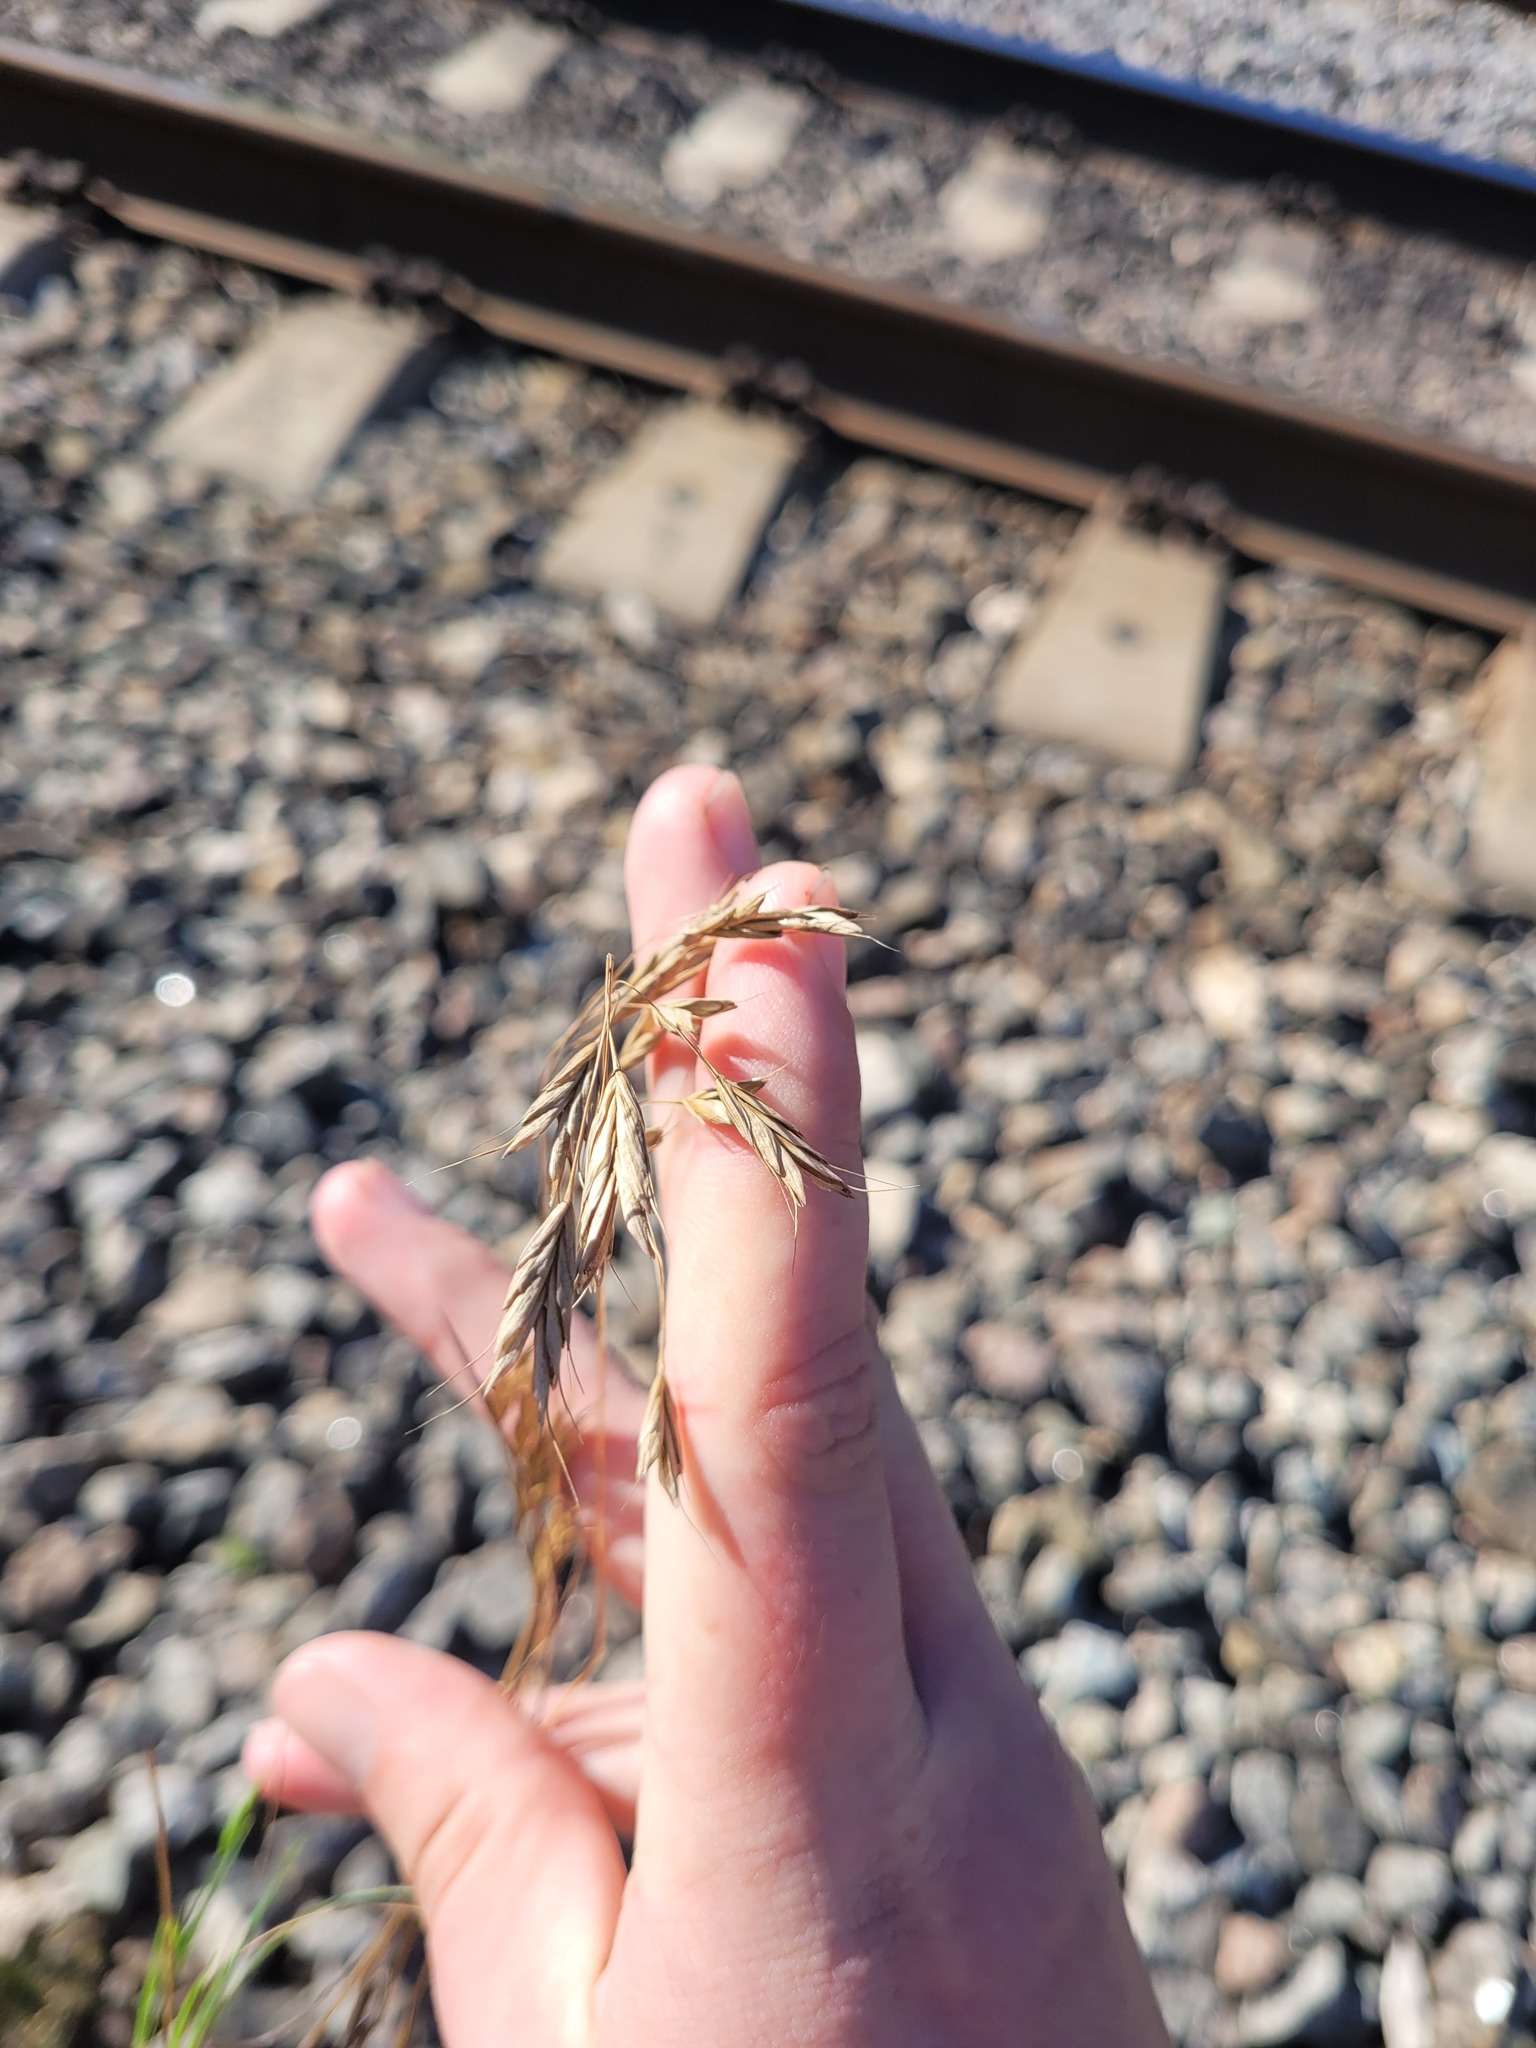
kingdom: Plantae
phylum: Tracheophyta
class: Liliopsida
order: Poales
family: Poaceae
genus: Bromus
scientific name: Bromus japonicus
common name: Japanese brome
